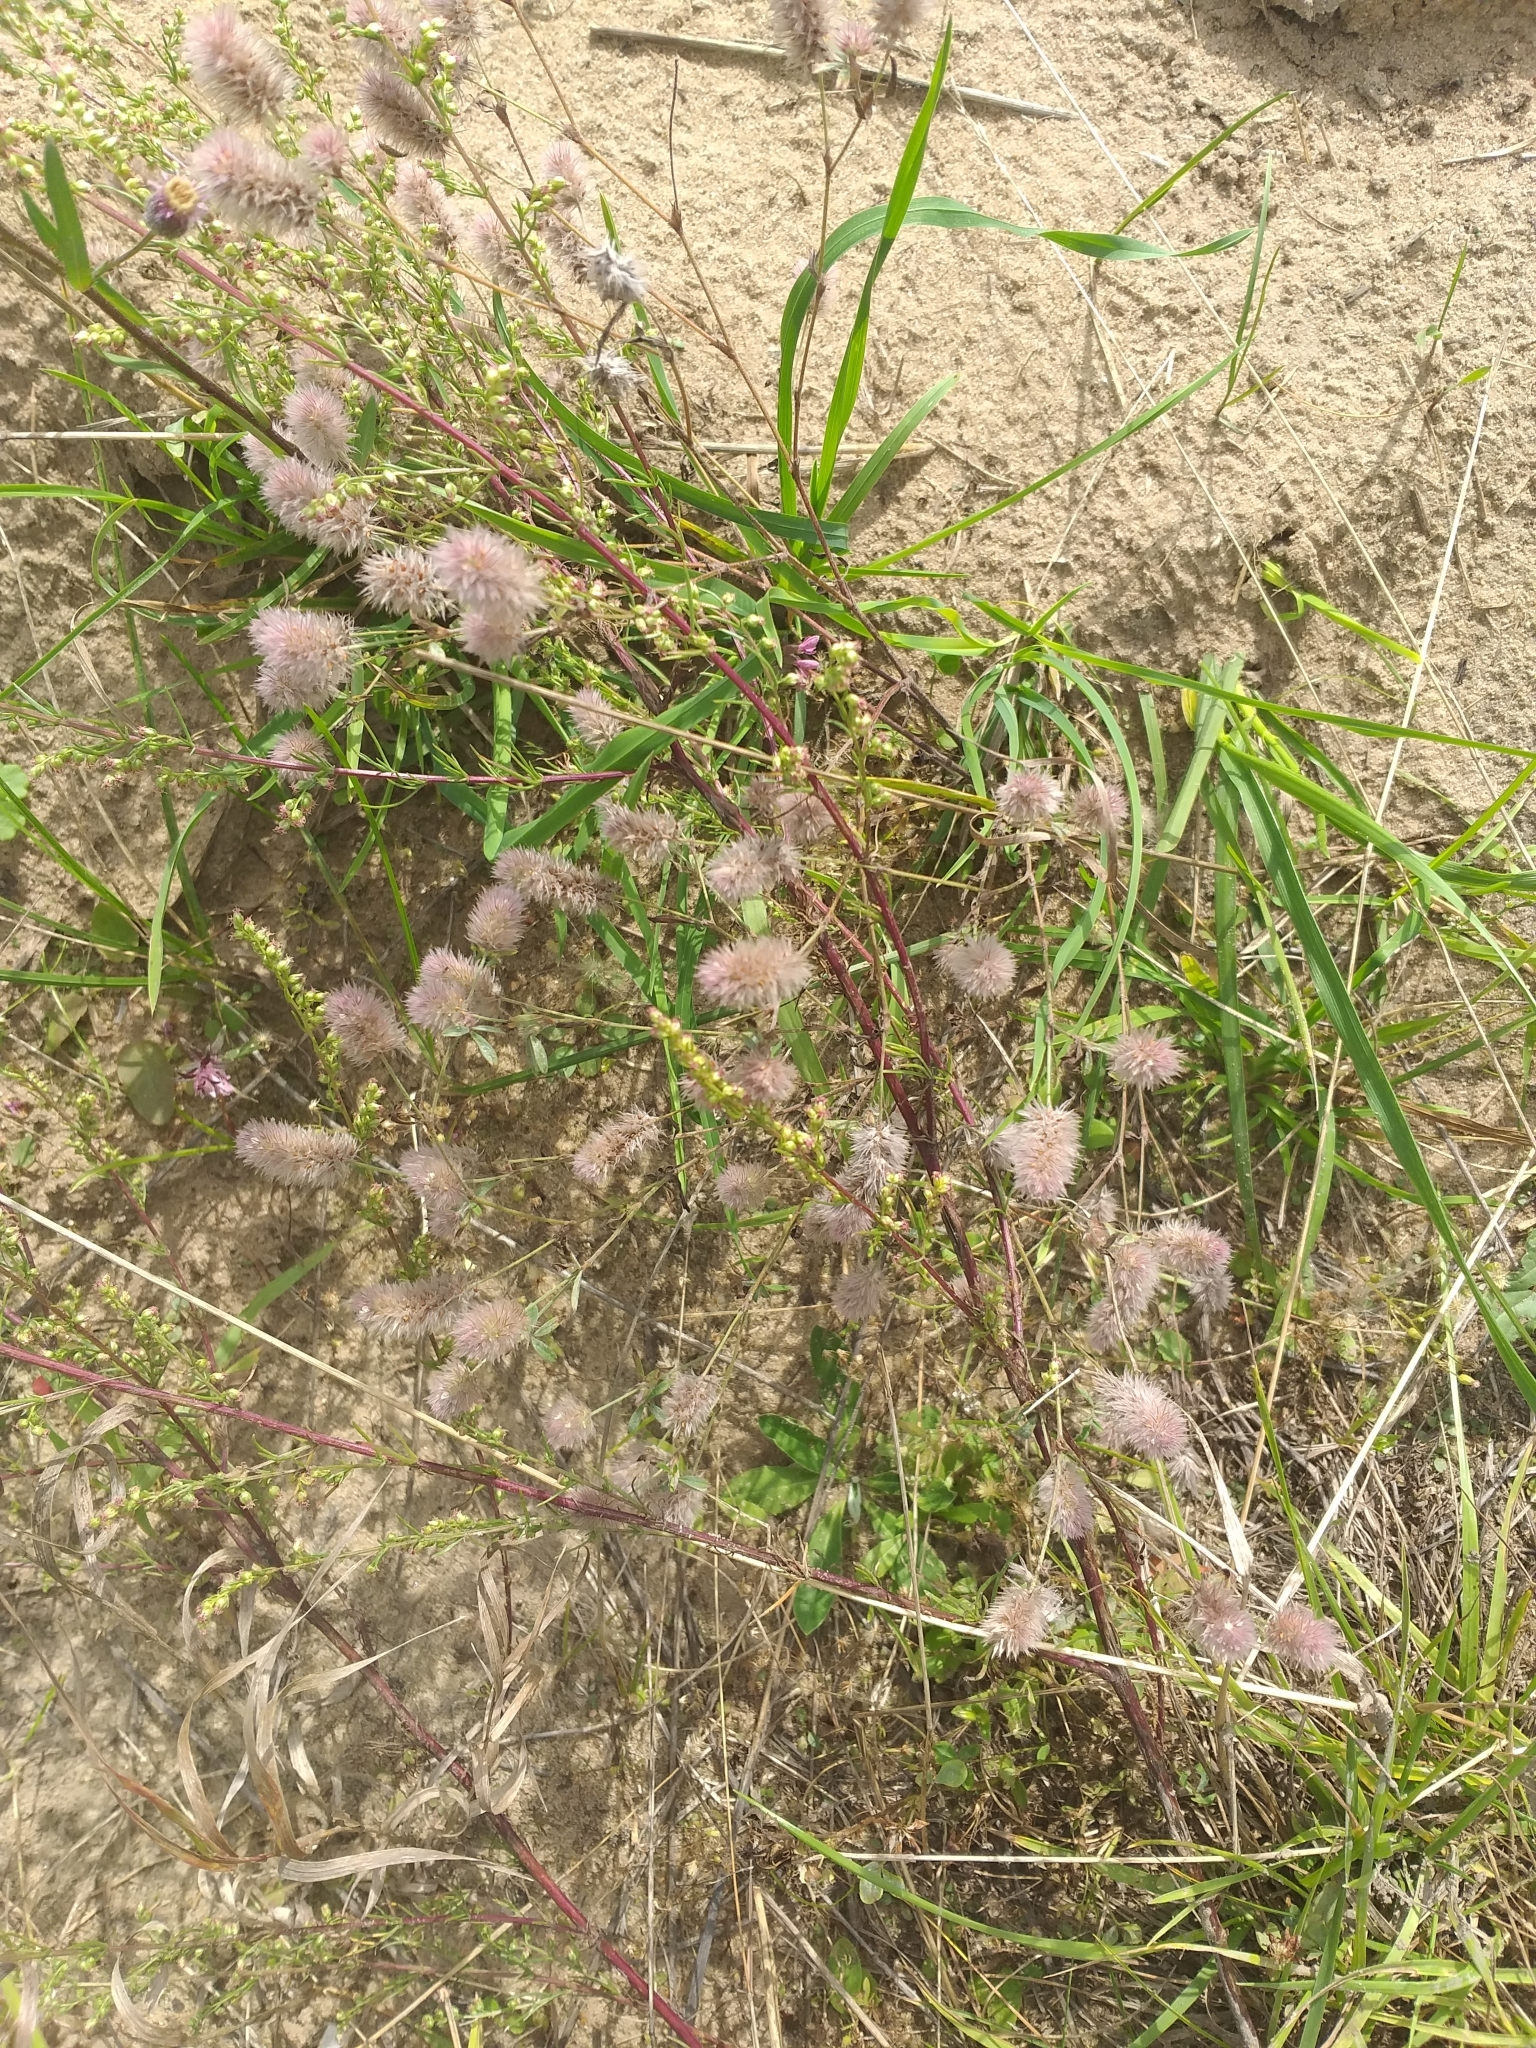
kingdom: Plantae
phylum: Tracheophyta
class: Magnoliopsida
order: Fabales
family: Fabaceae
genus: Trifolium
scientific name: Trifolium arvense
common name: Hare's-foot clover
